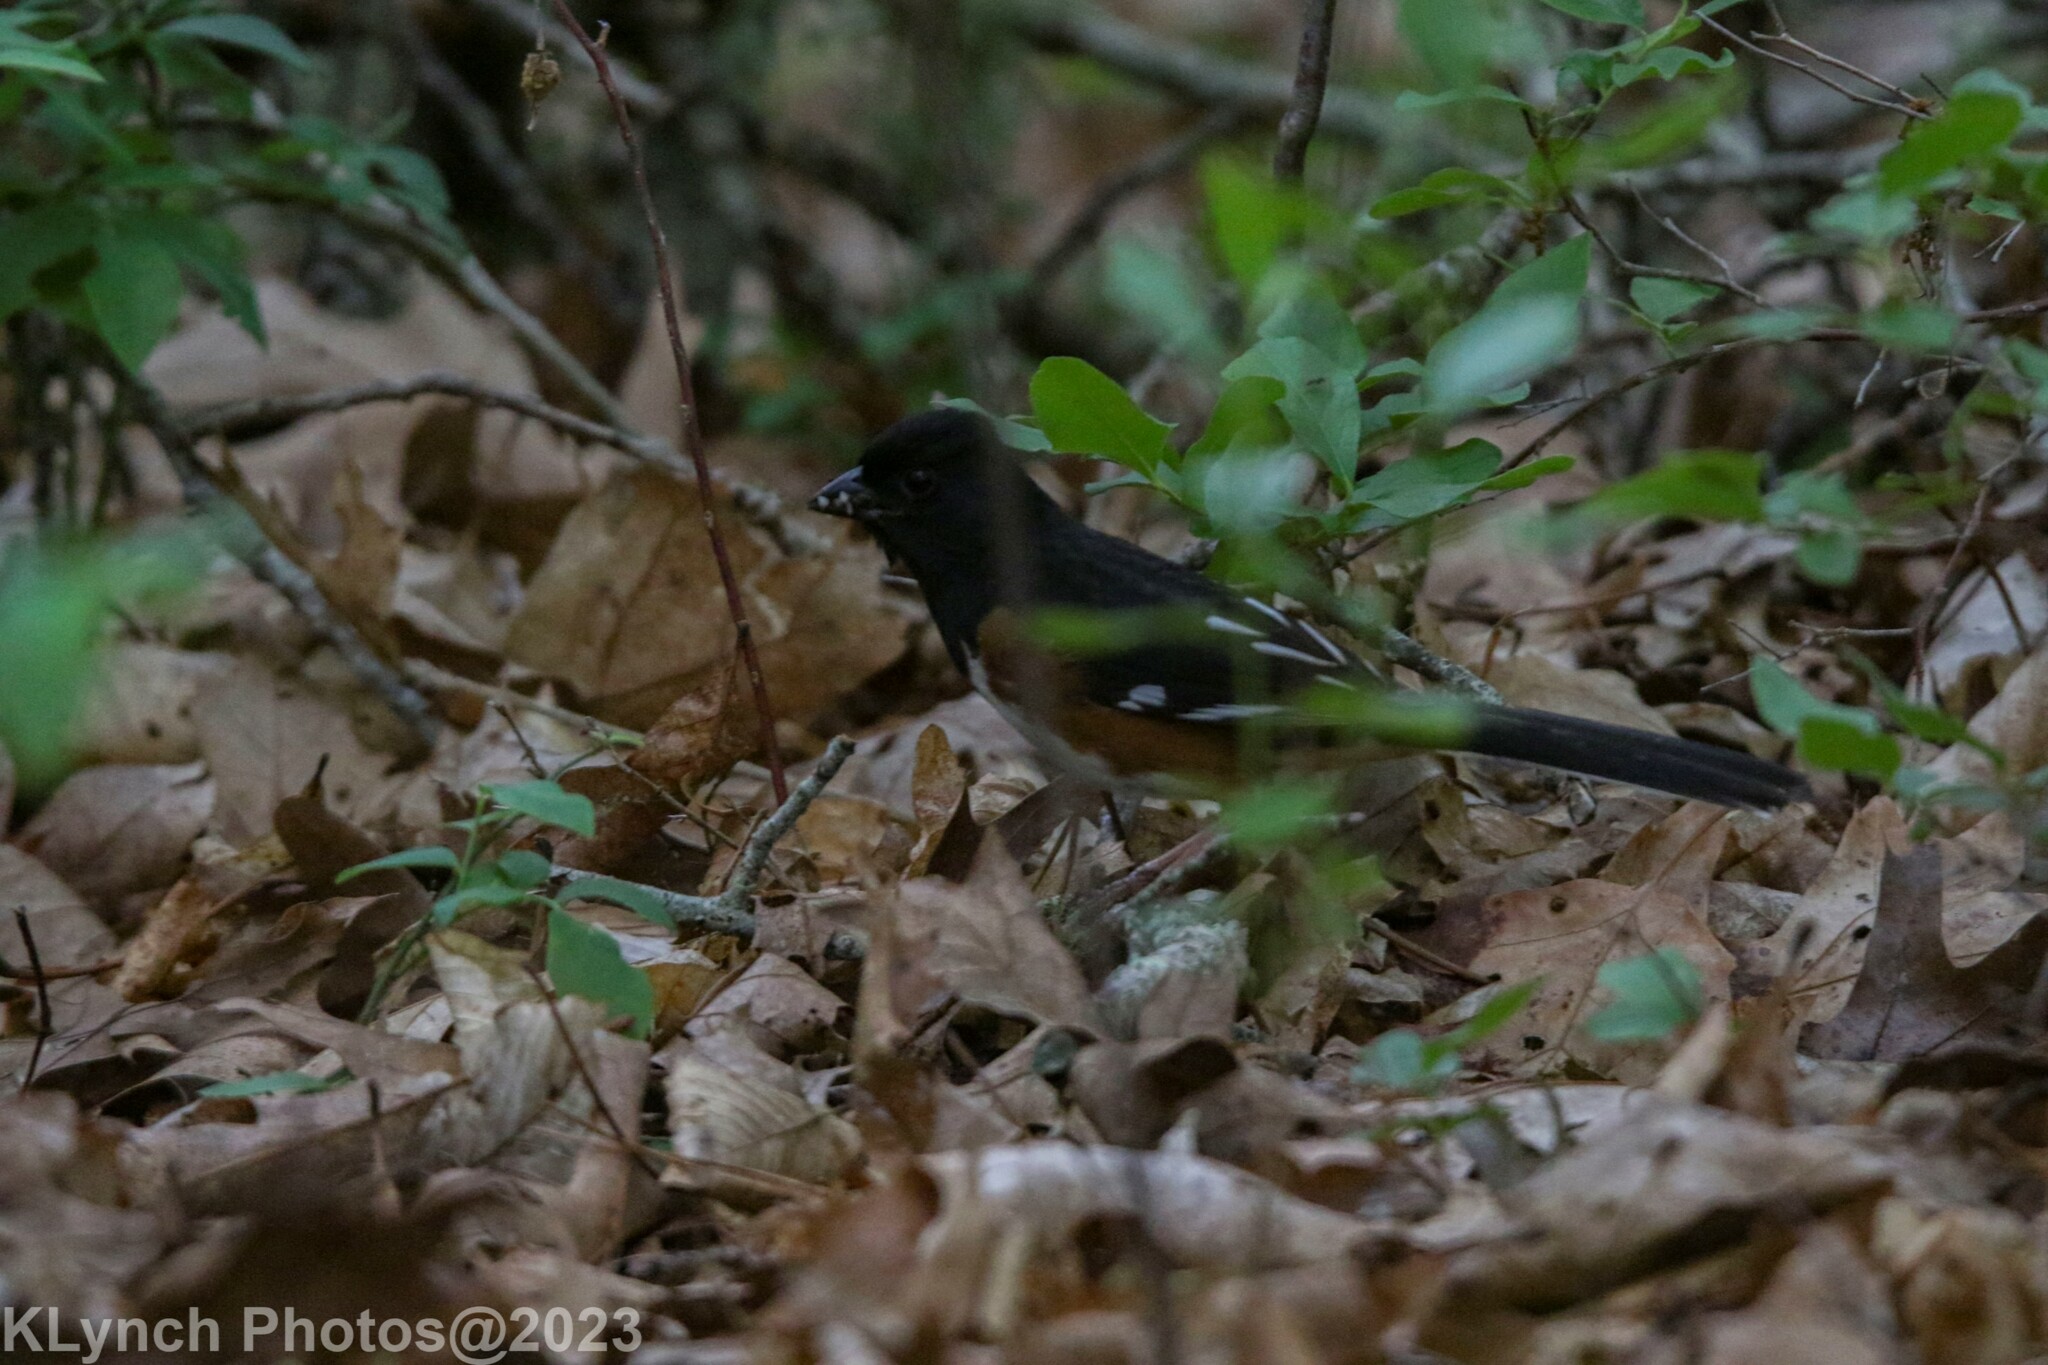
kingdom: Animalia
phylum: Chordata
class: Aves
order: Passeriformes
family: Passerellidae
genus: Pipilo
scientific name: Pipilo erythrophthalmus
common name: Eastern towhee
